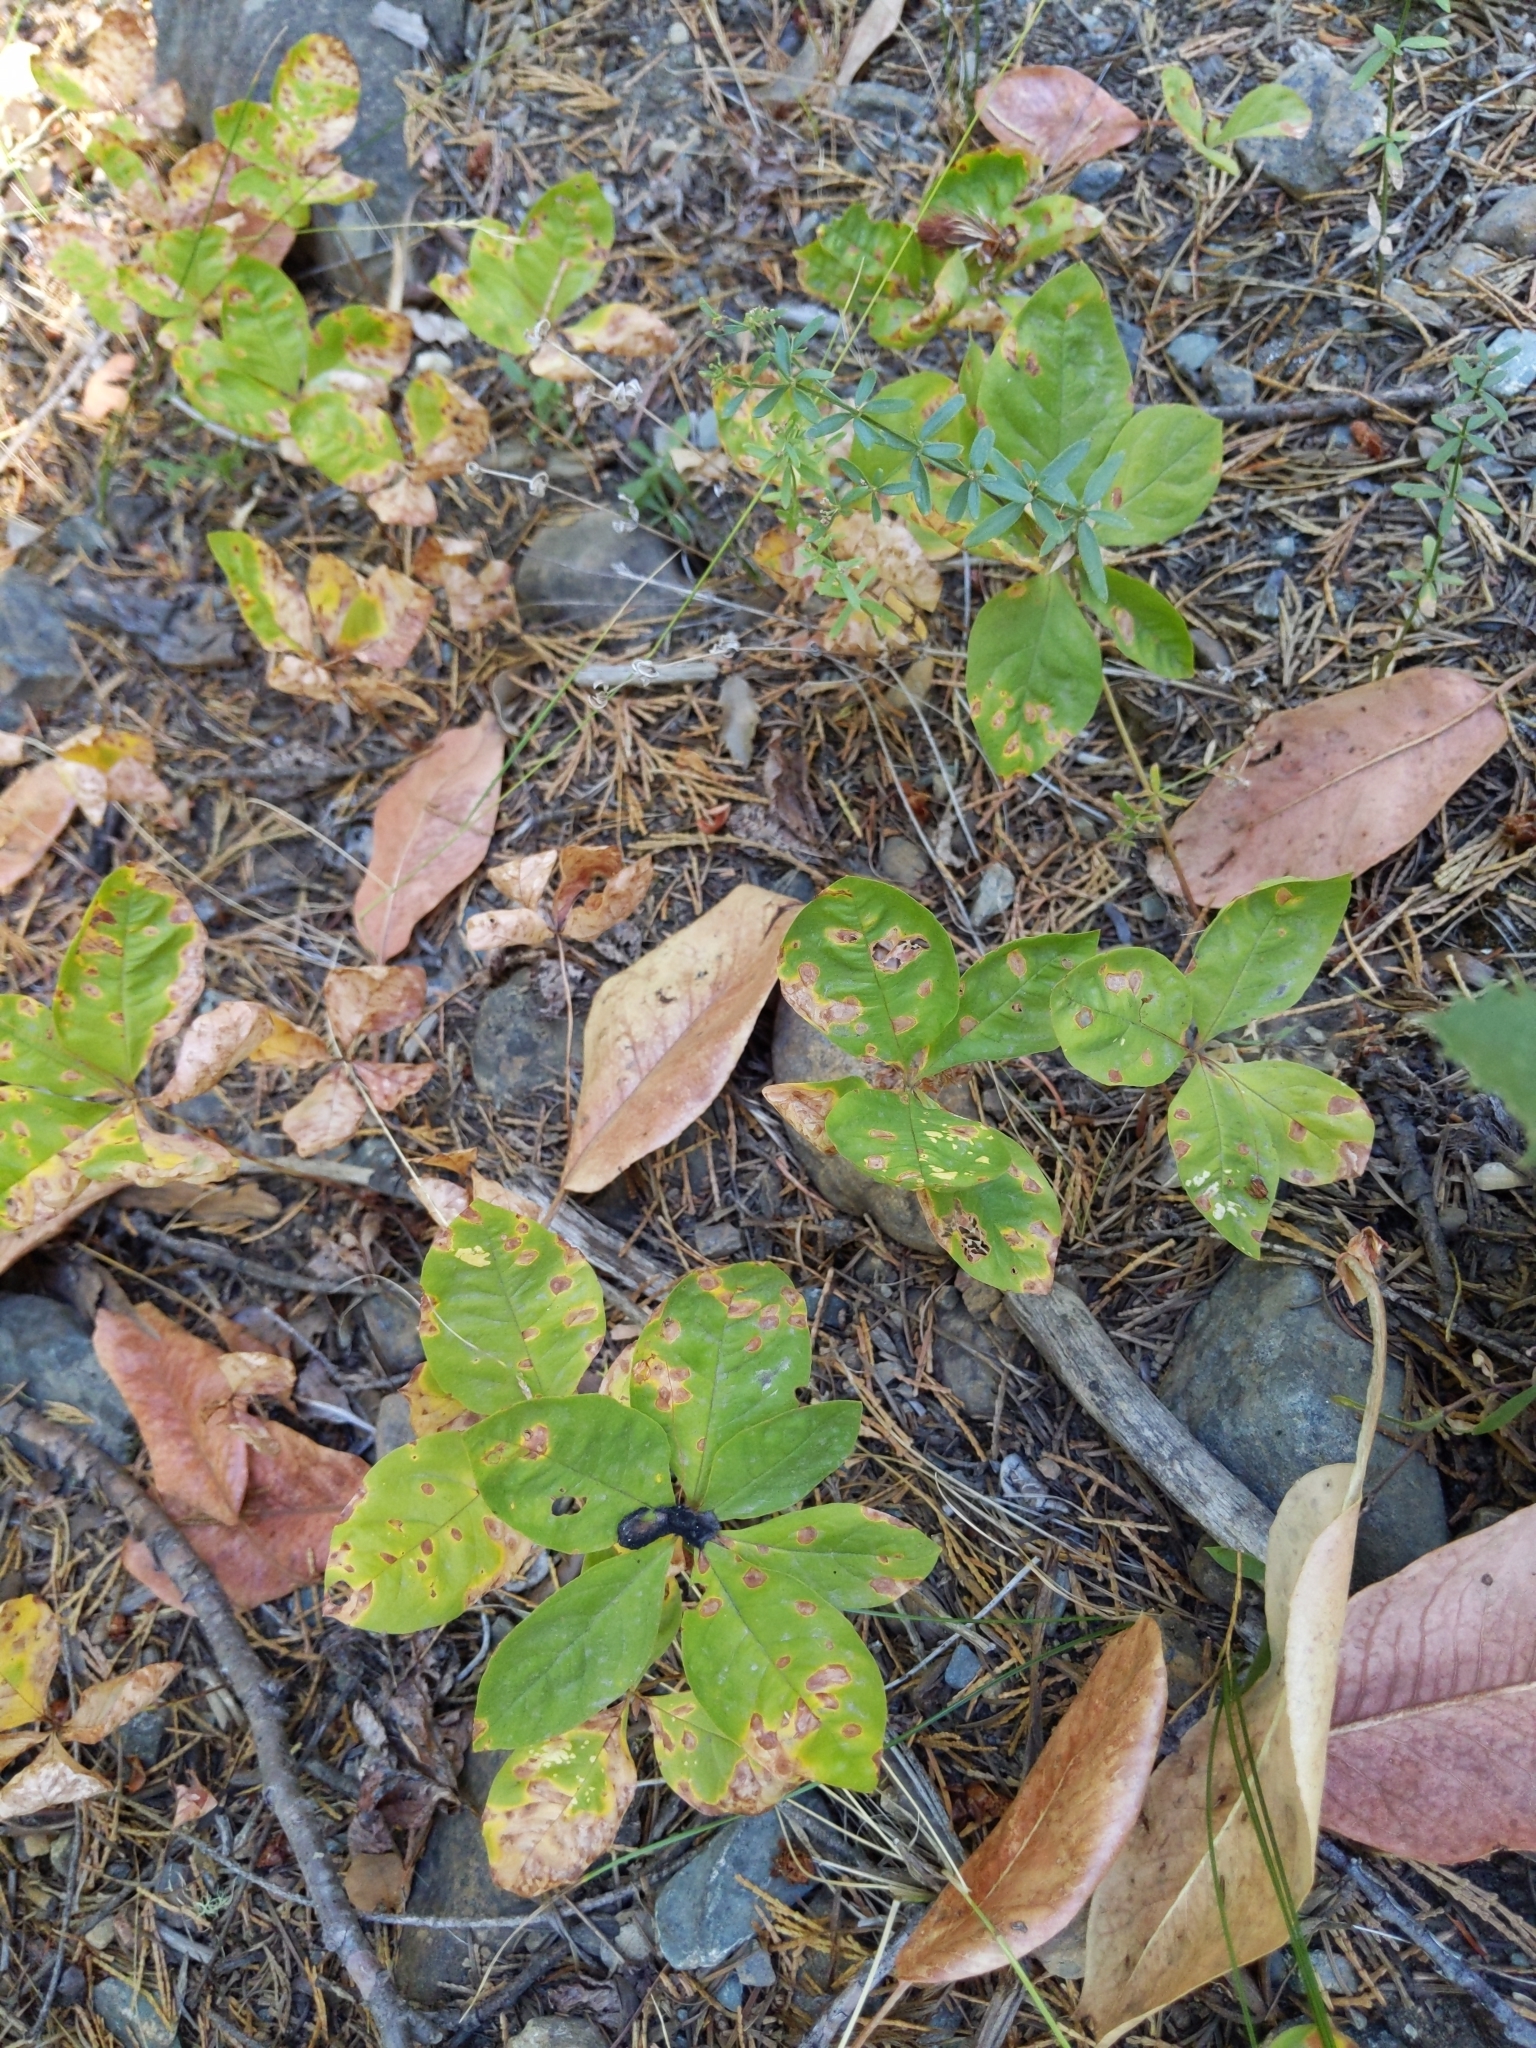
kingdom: Plantae
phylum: Tracheophyta
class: Magnoliopsida
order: Ericales
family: Primulaceae
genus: Lysimachia
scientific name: Lysimachia latifolia
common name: Pacific starflower
